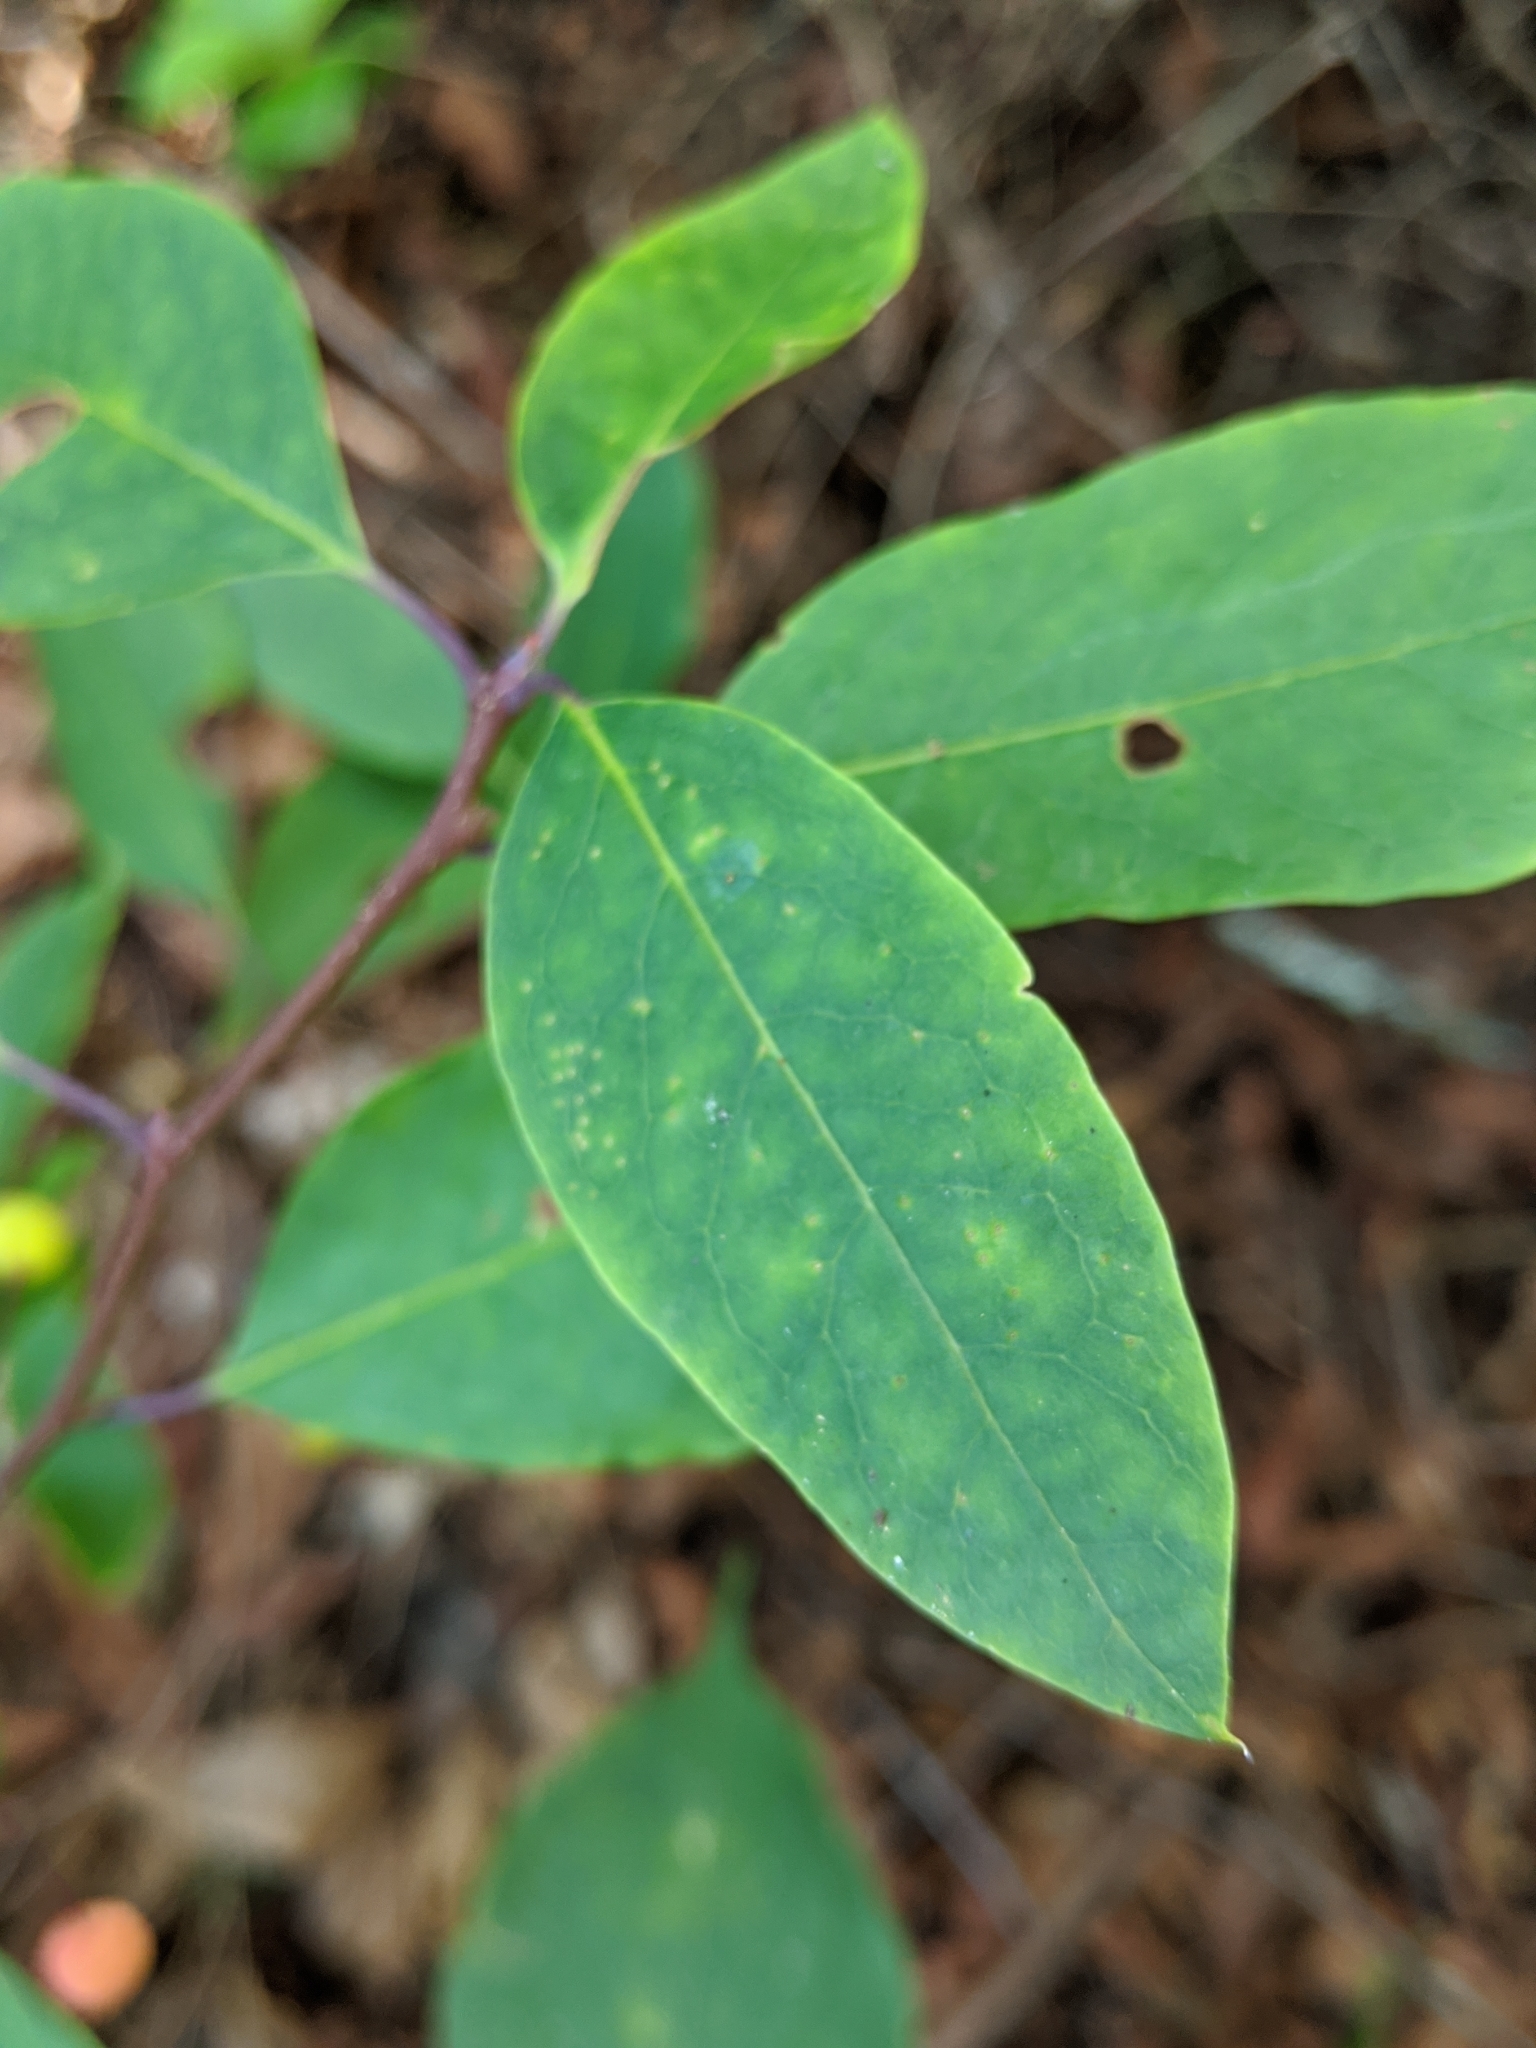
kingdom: Plantae
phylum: Tracheophyta
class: Magnoliopsida
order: Aquifoliales
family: Aquifoliaceae
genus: Ilex
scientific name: Ilex mucronata
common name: Catberry
